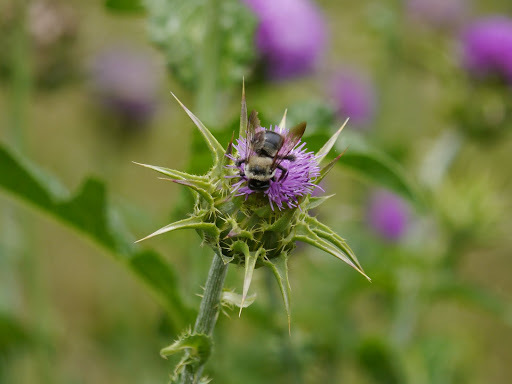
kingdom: Animalia
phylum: Arthropoda
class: Insecta
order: Hymenoptera
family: Apidae
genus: Xylocopa
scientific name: Xylocopa virginica
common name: Carpenter bee
